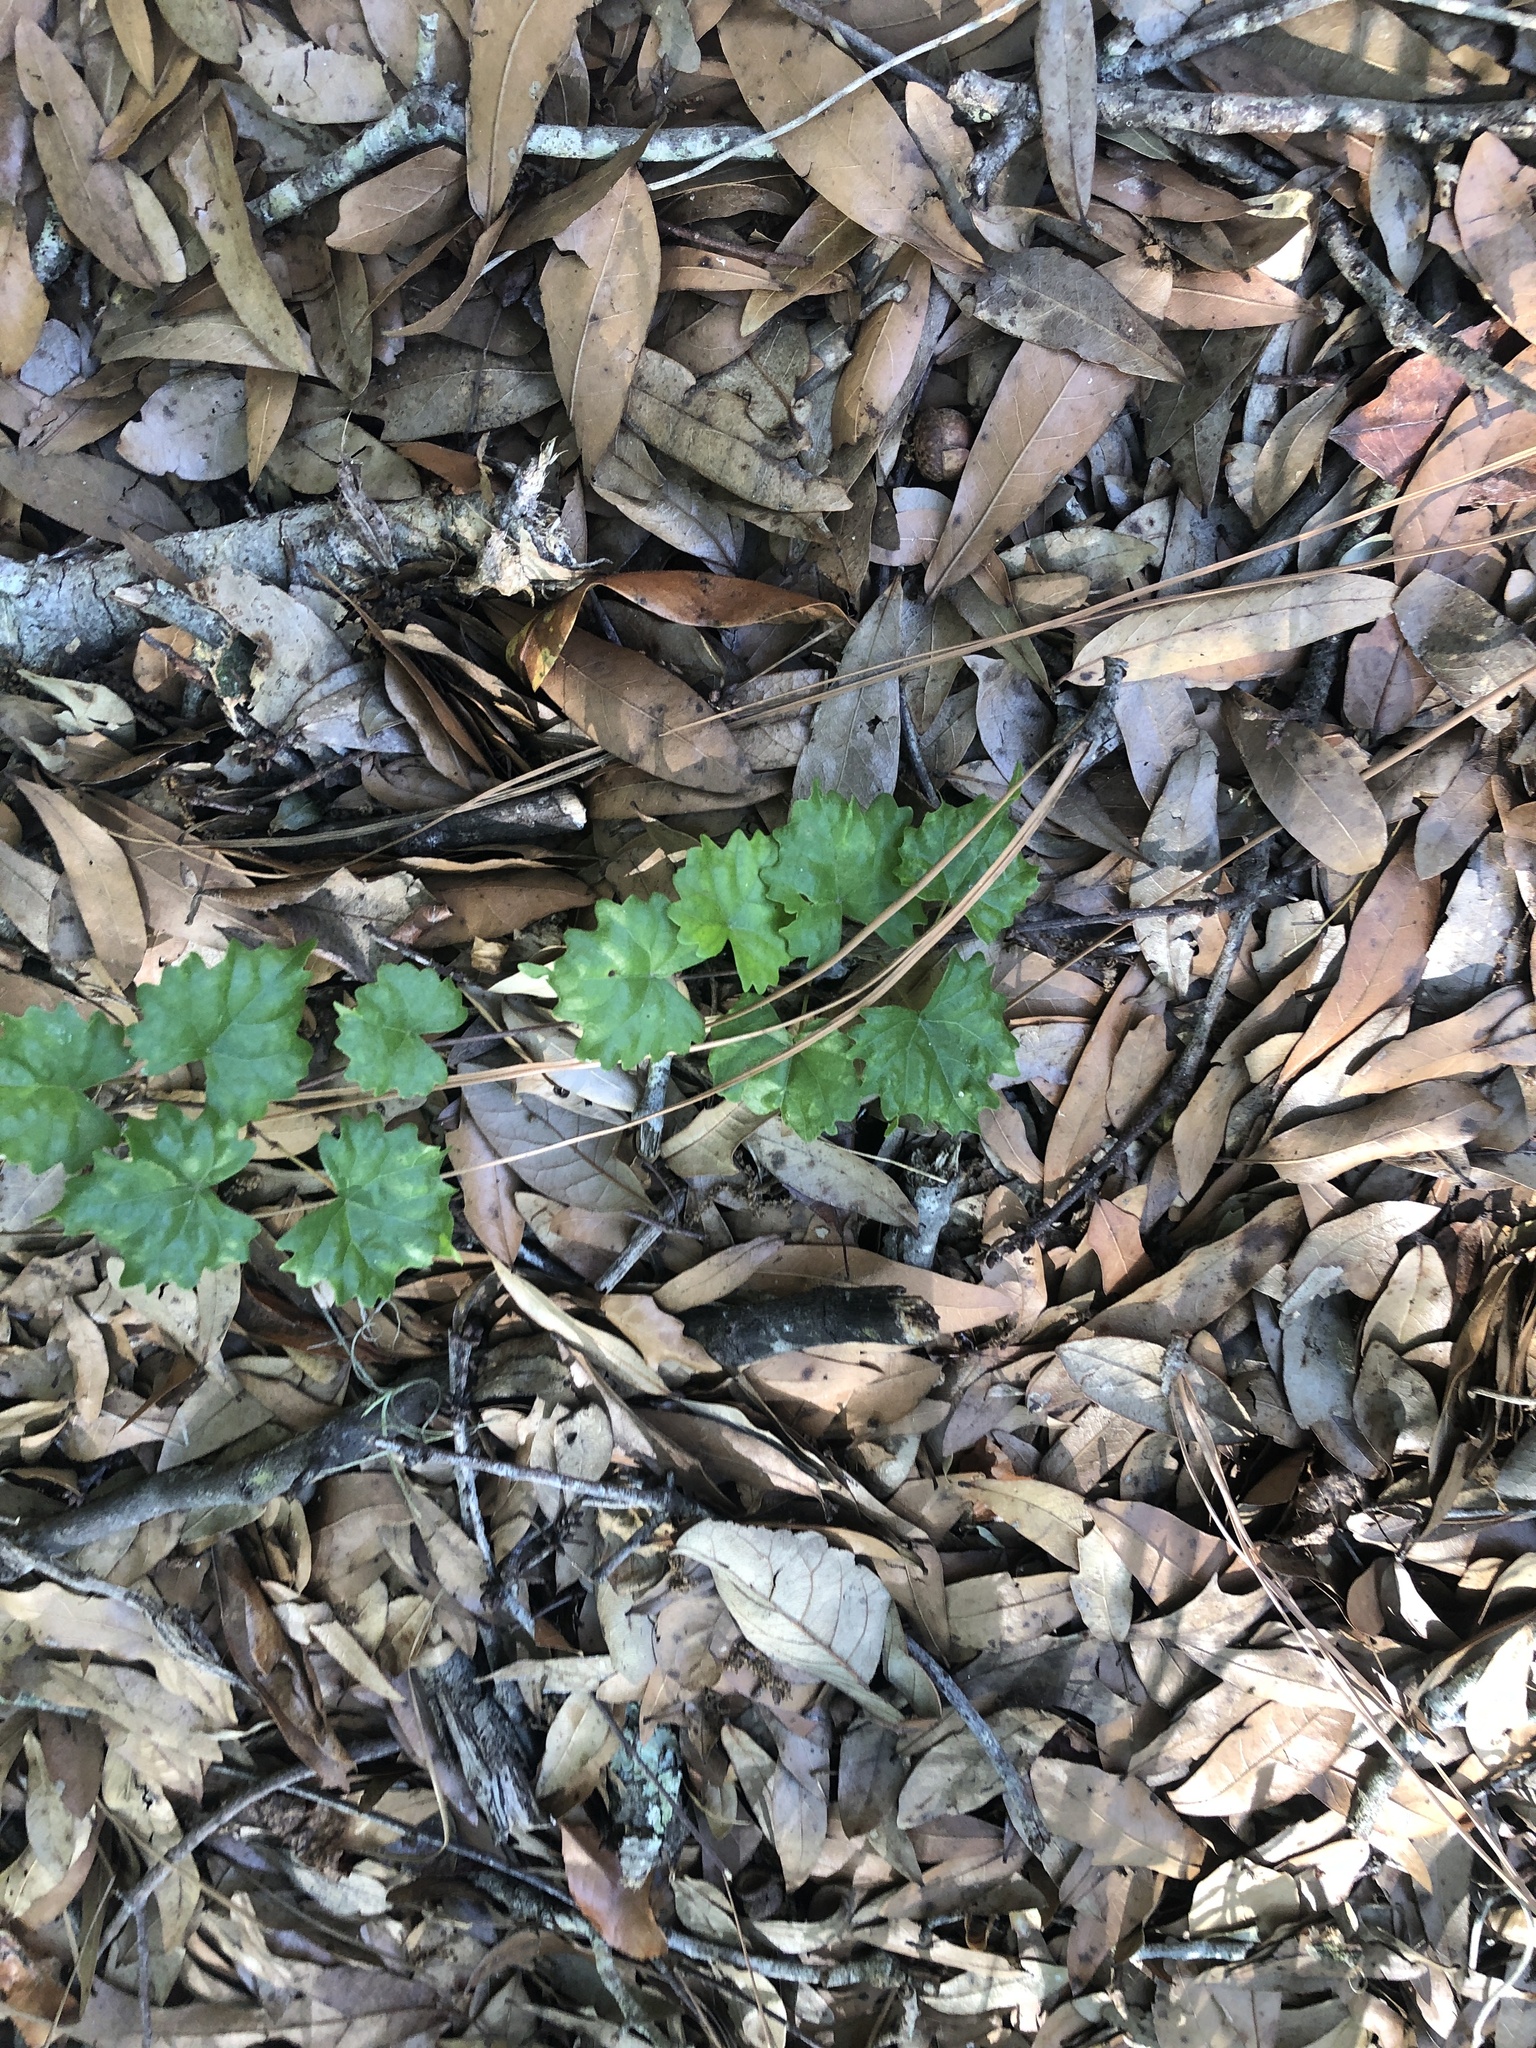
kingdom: Plantae
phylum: Tracheophyta
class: Magnoliopsida
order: Vitales
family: Vitaceae
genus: Vitis
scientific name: Vitis rotundifolia
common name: Muscadine grape
